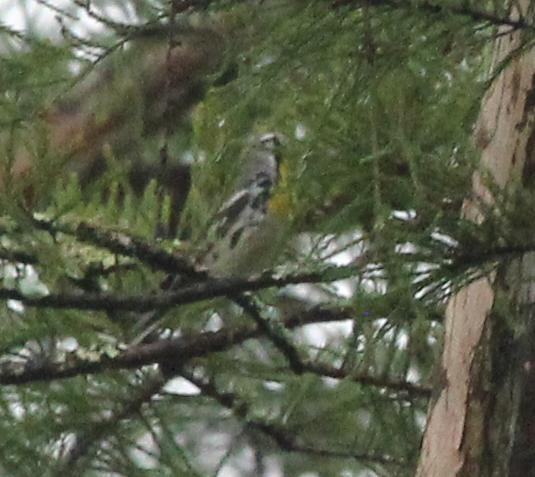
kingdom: Animalia
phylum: Chordata
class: Aves
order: Passeriformes
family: Parulidae
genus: Setophaga
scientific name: Setophaga dominica
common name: Yellow-throated warbler
